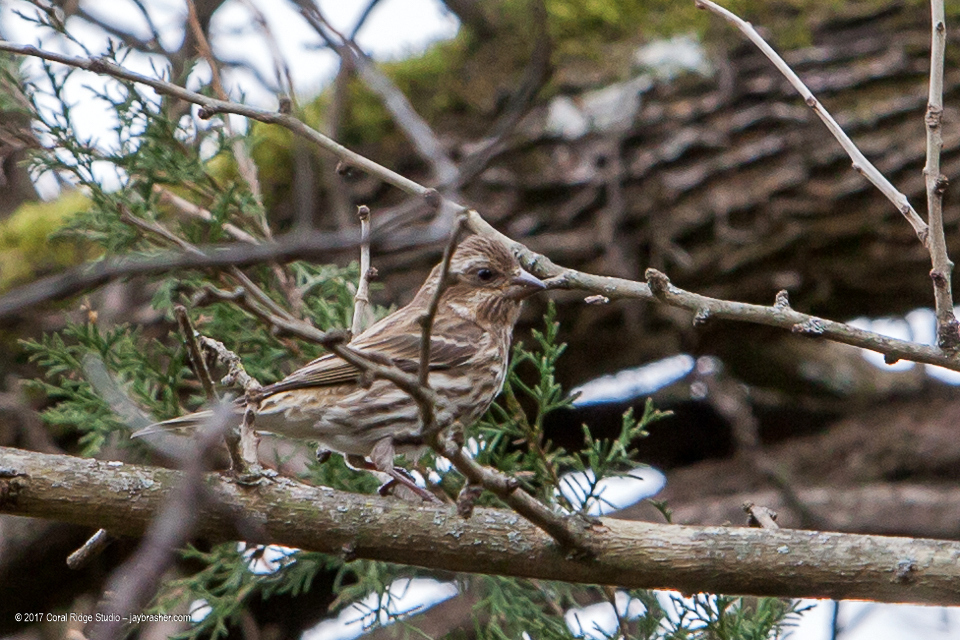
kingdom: Animalia
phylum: Chordata
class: Aves
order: Passeriformes
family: Fringillidae
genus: Haemorhous
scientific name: Haemorhous purpureus
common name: Purple finch
